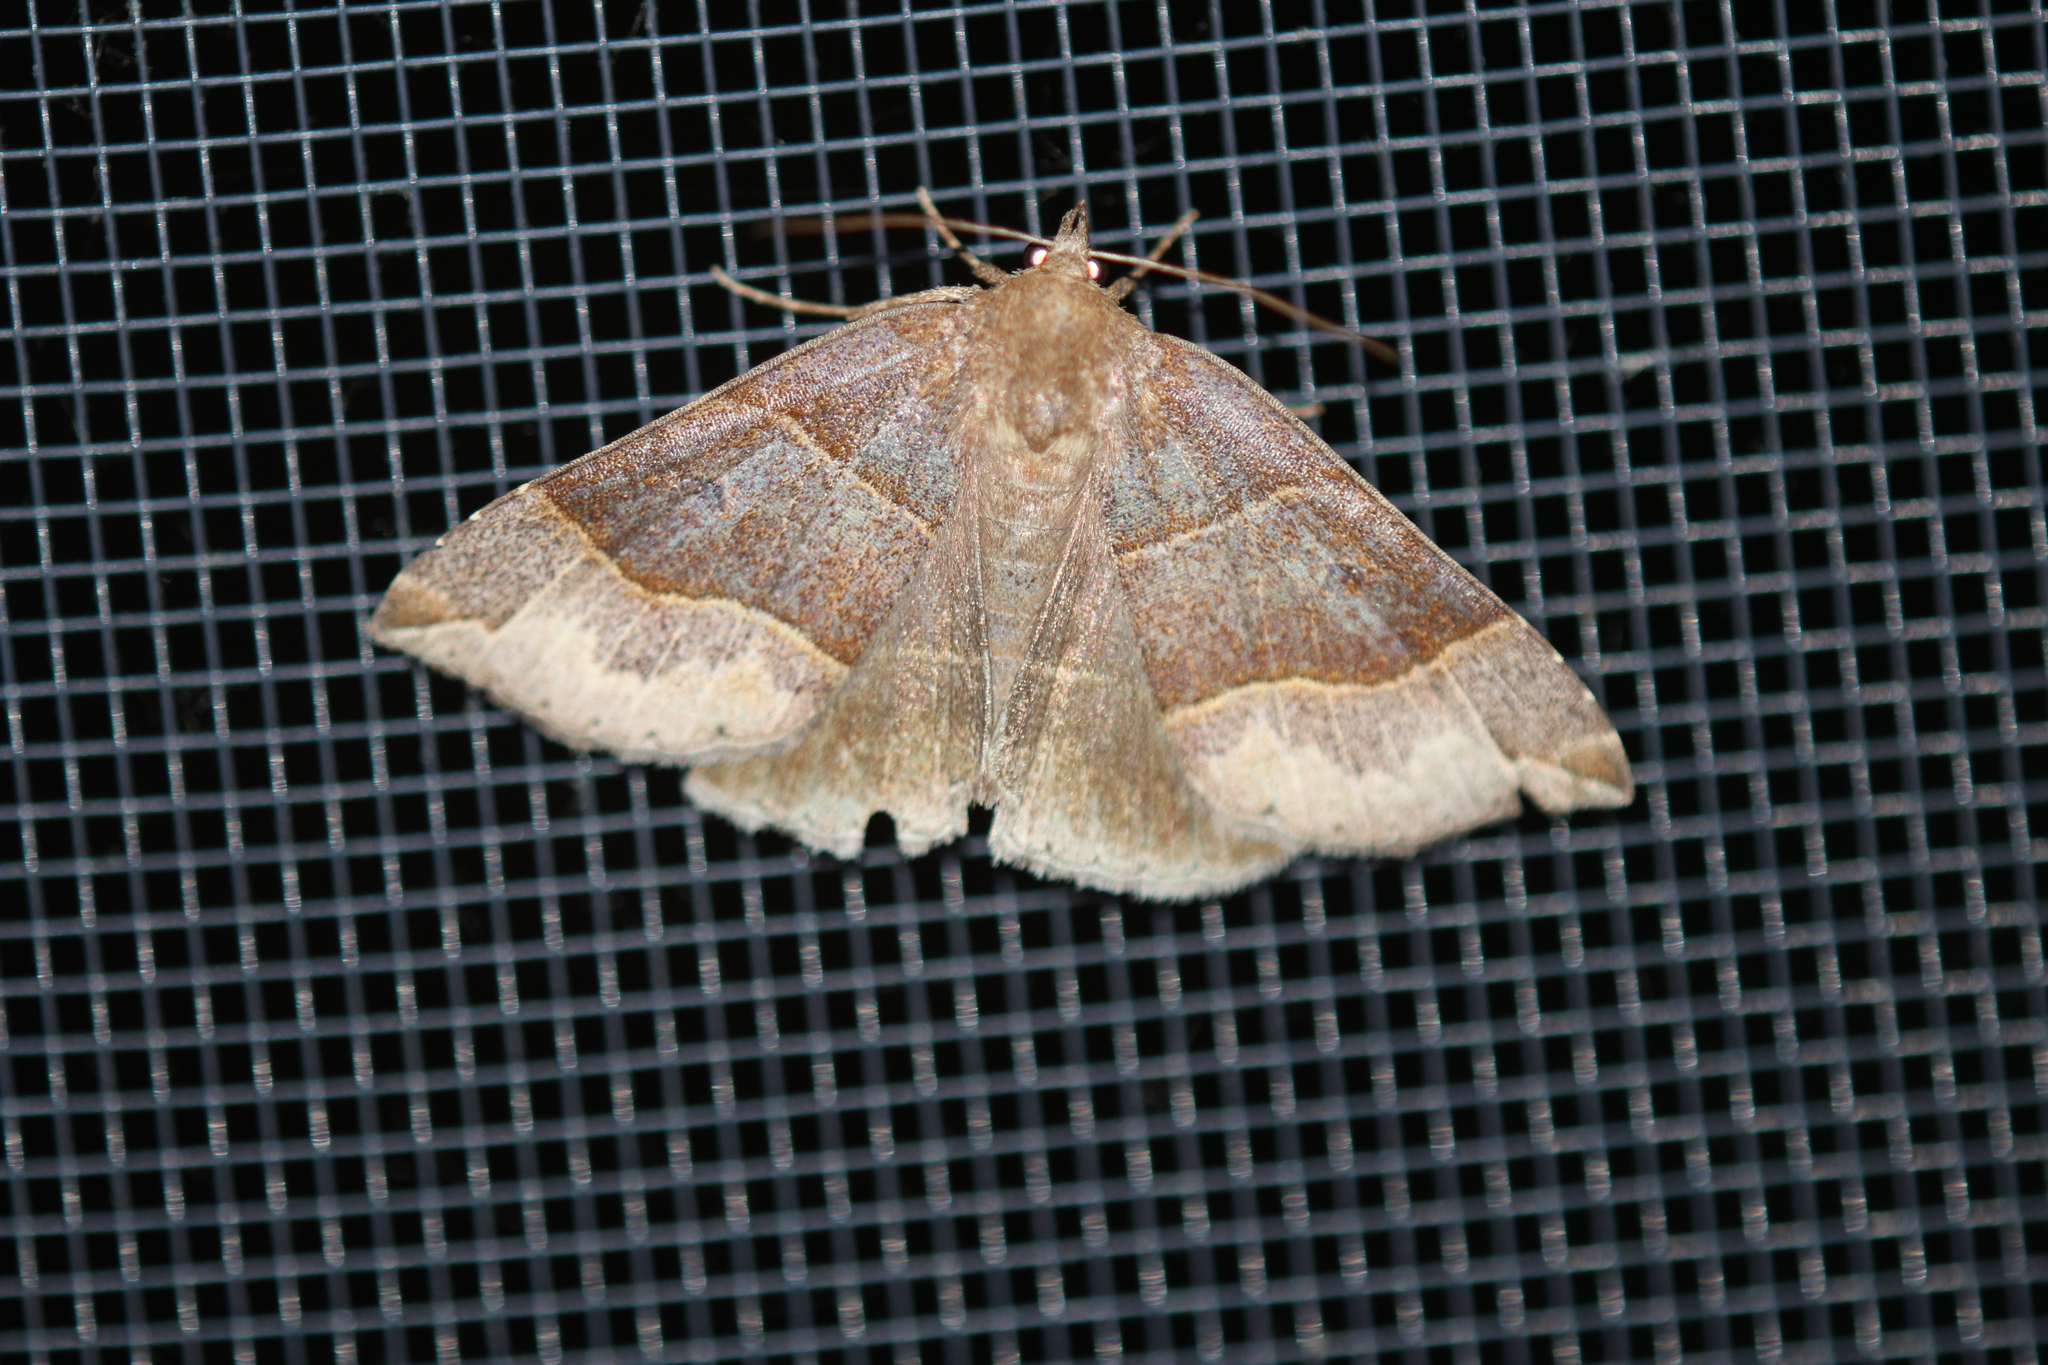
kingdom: Animalia
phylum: Arthropoda
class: Insecta
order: Lepidoptera
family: Erebidae
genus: Parallelia
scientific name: Parallelia bistriaris
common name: Maple looper moth
